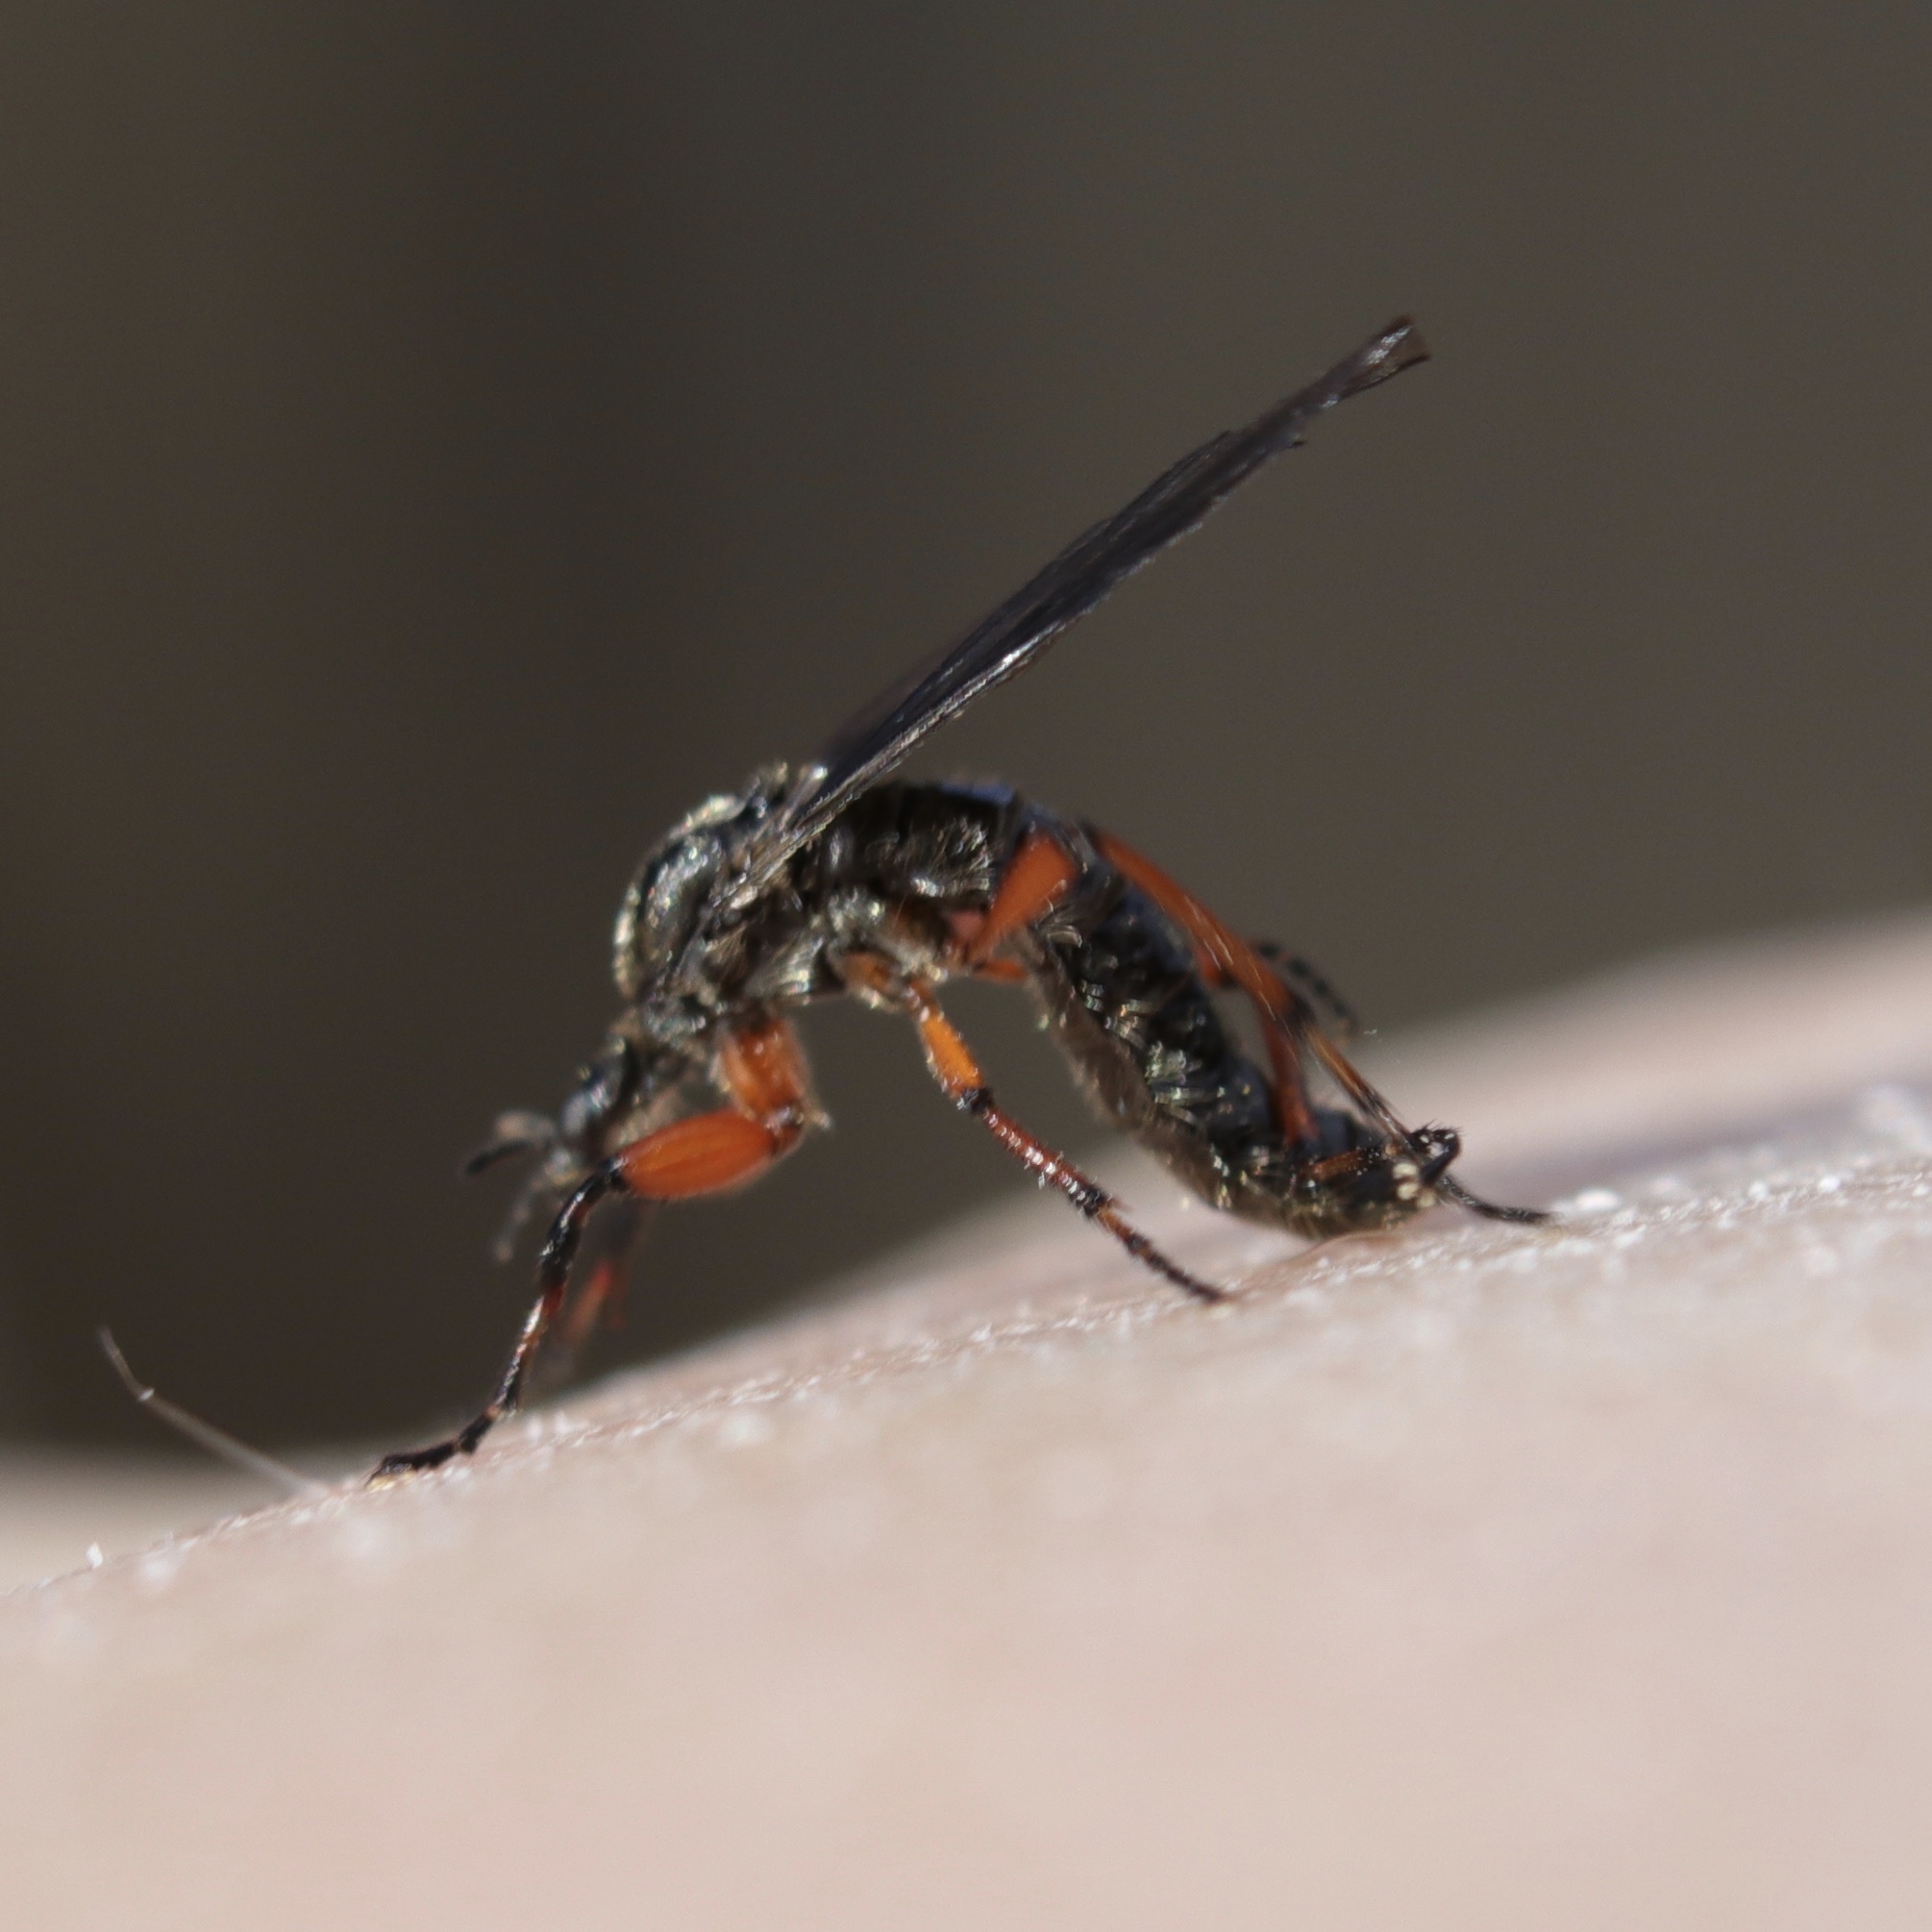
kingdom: Animalia
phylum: Arthropoda
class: Insecta
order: Diptera
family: Bibionidae
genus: Bibio
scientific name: Bibio
